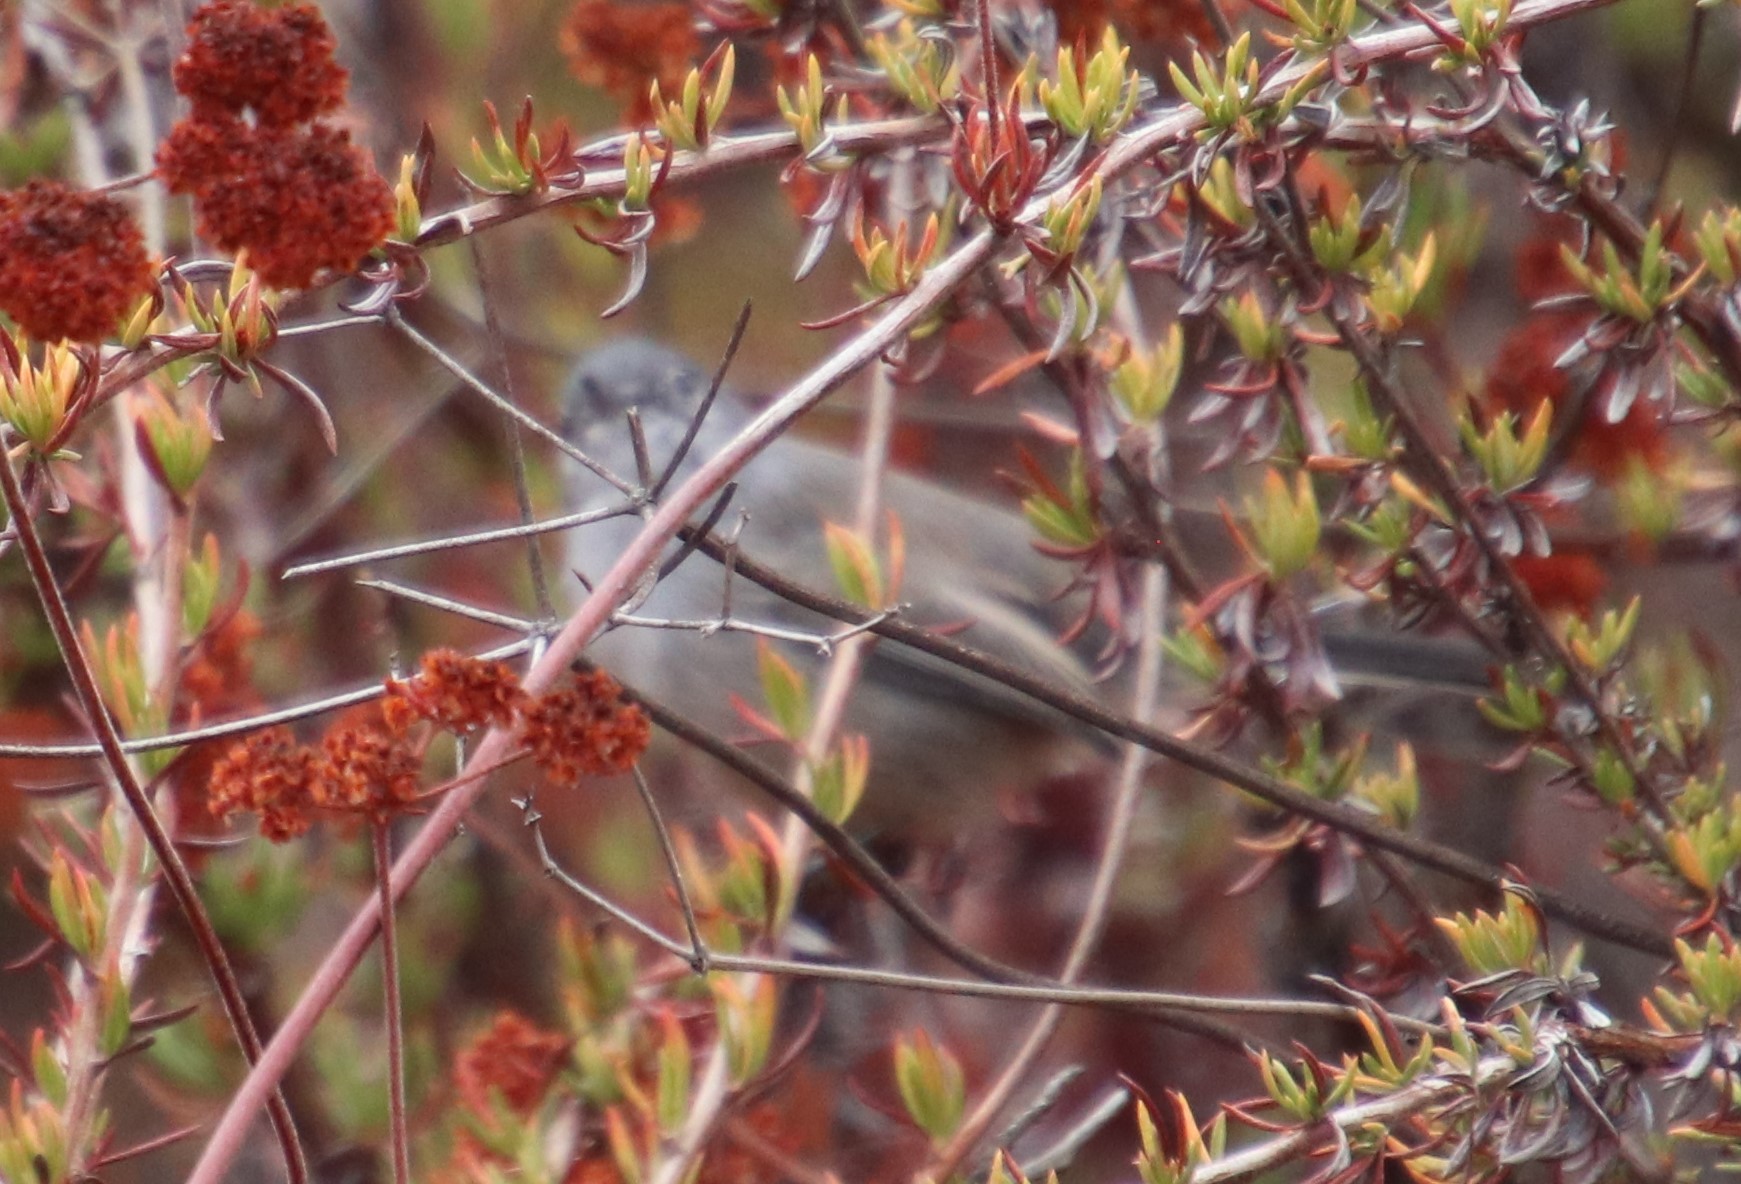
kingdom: Animalia
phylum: Chordata
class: Aves
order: Passeriformes
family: Polioptilidae
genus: Polioptila
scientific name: Polioptila californica
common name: California gnatcatcher
